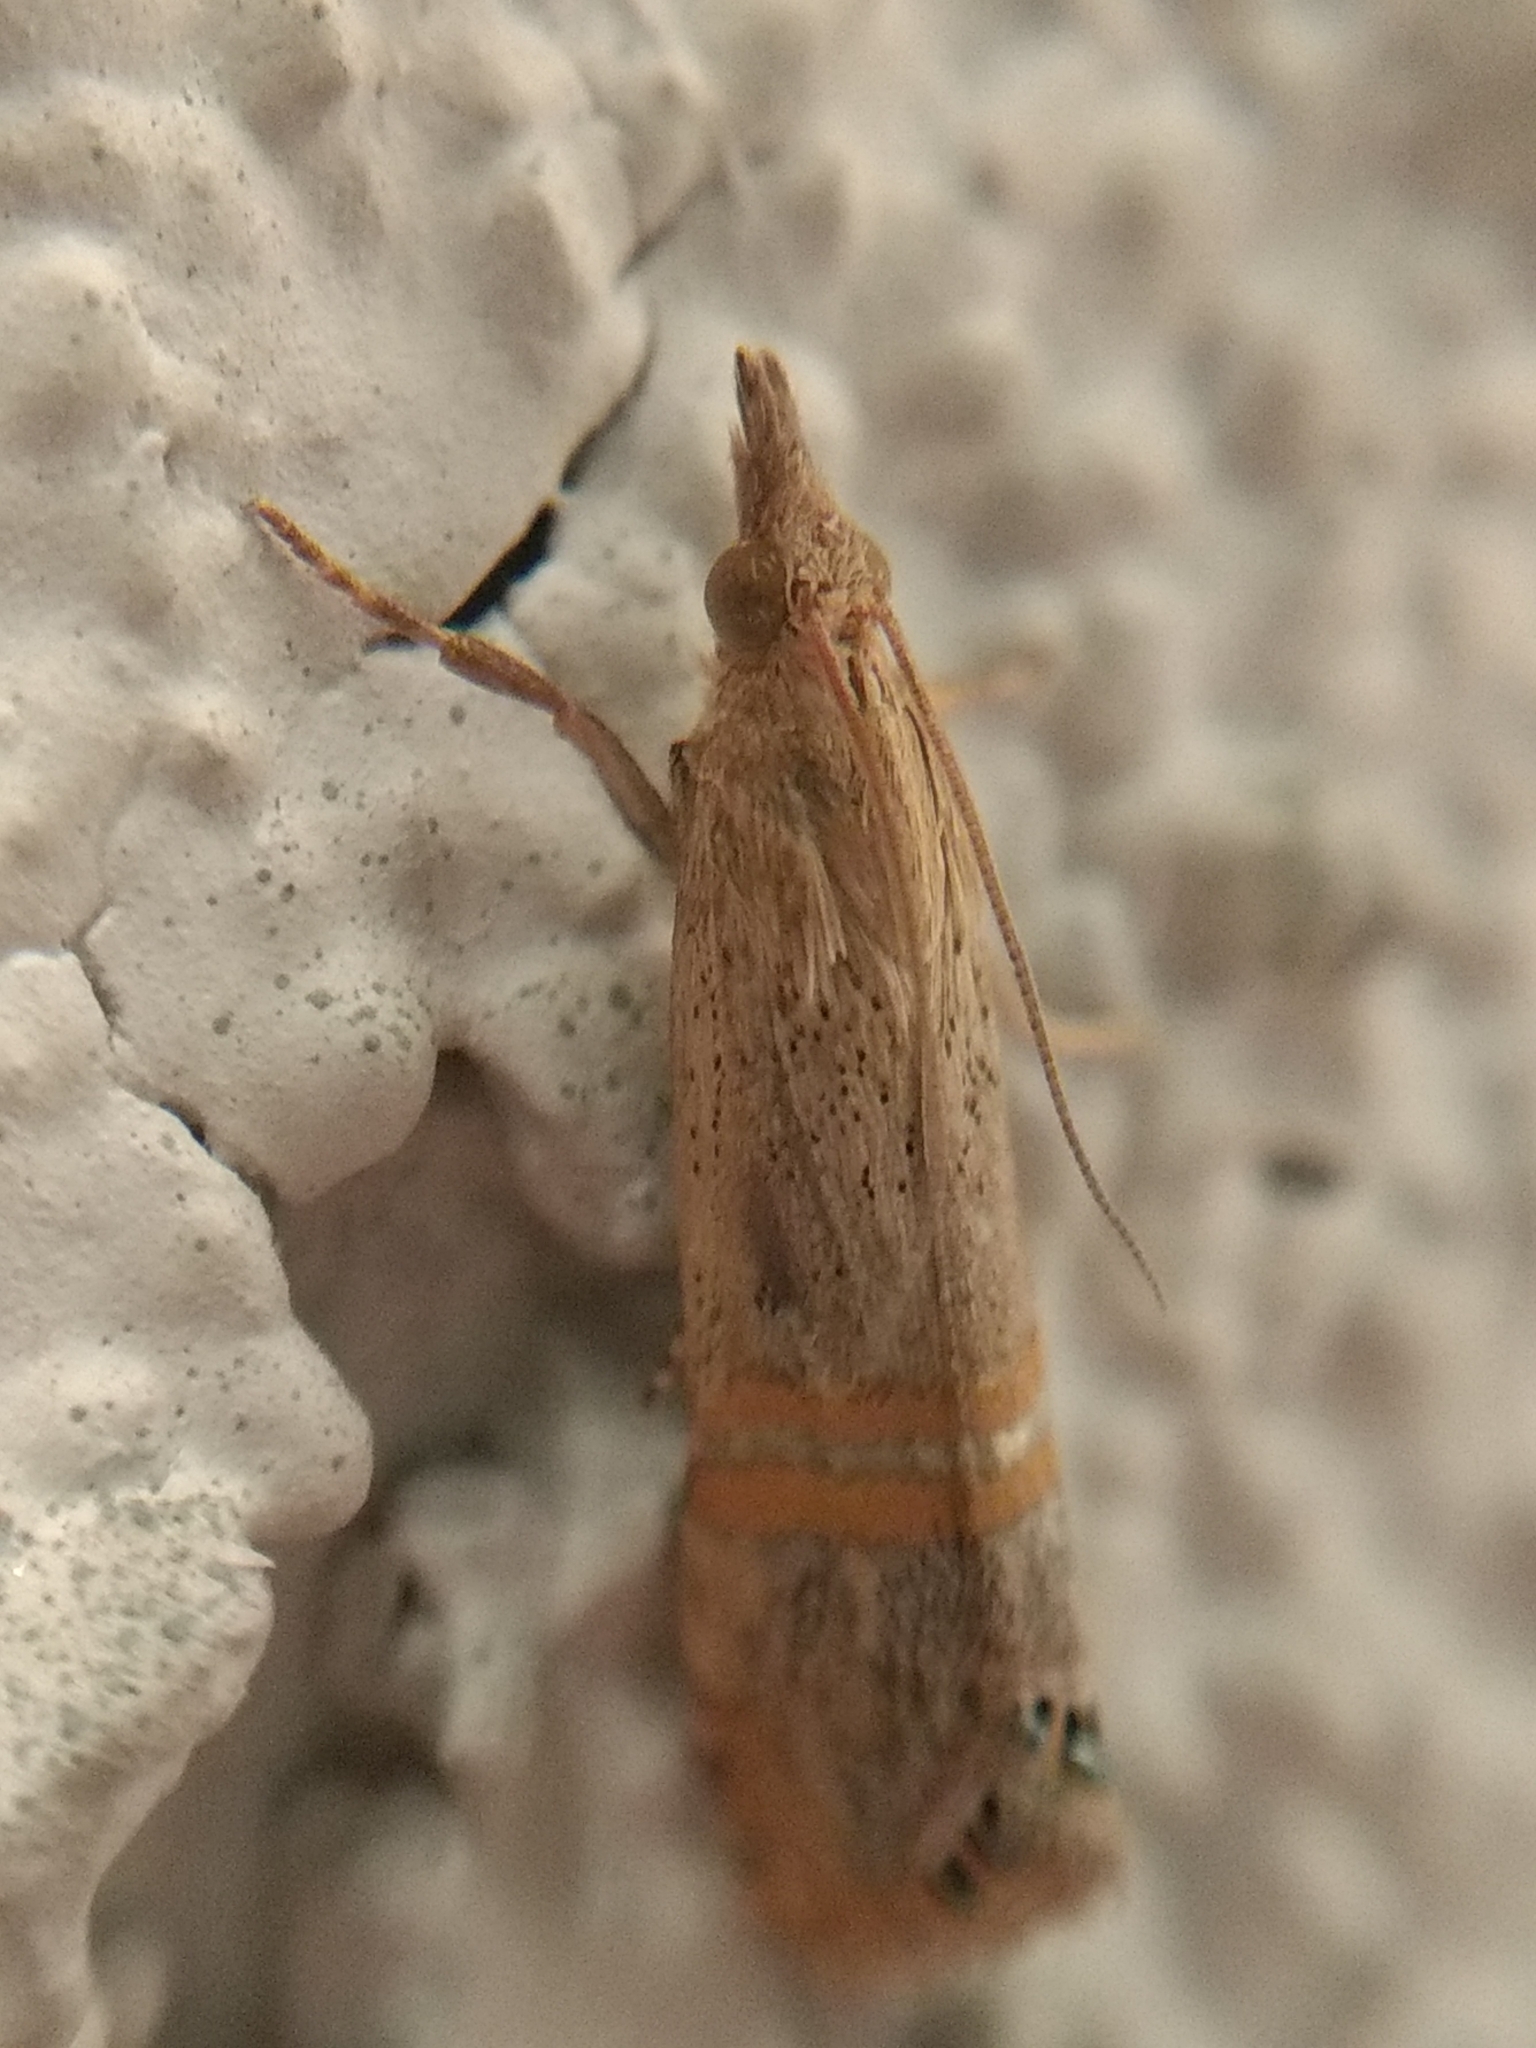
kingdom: Animalia
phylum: Arthropoda
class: Insecta
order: Lepidoptera
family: Crambidae
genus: Euchromius
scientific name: Euchromius ocellea
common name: Necklace veneer moth
